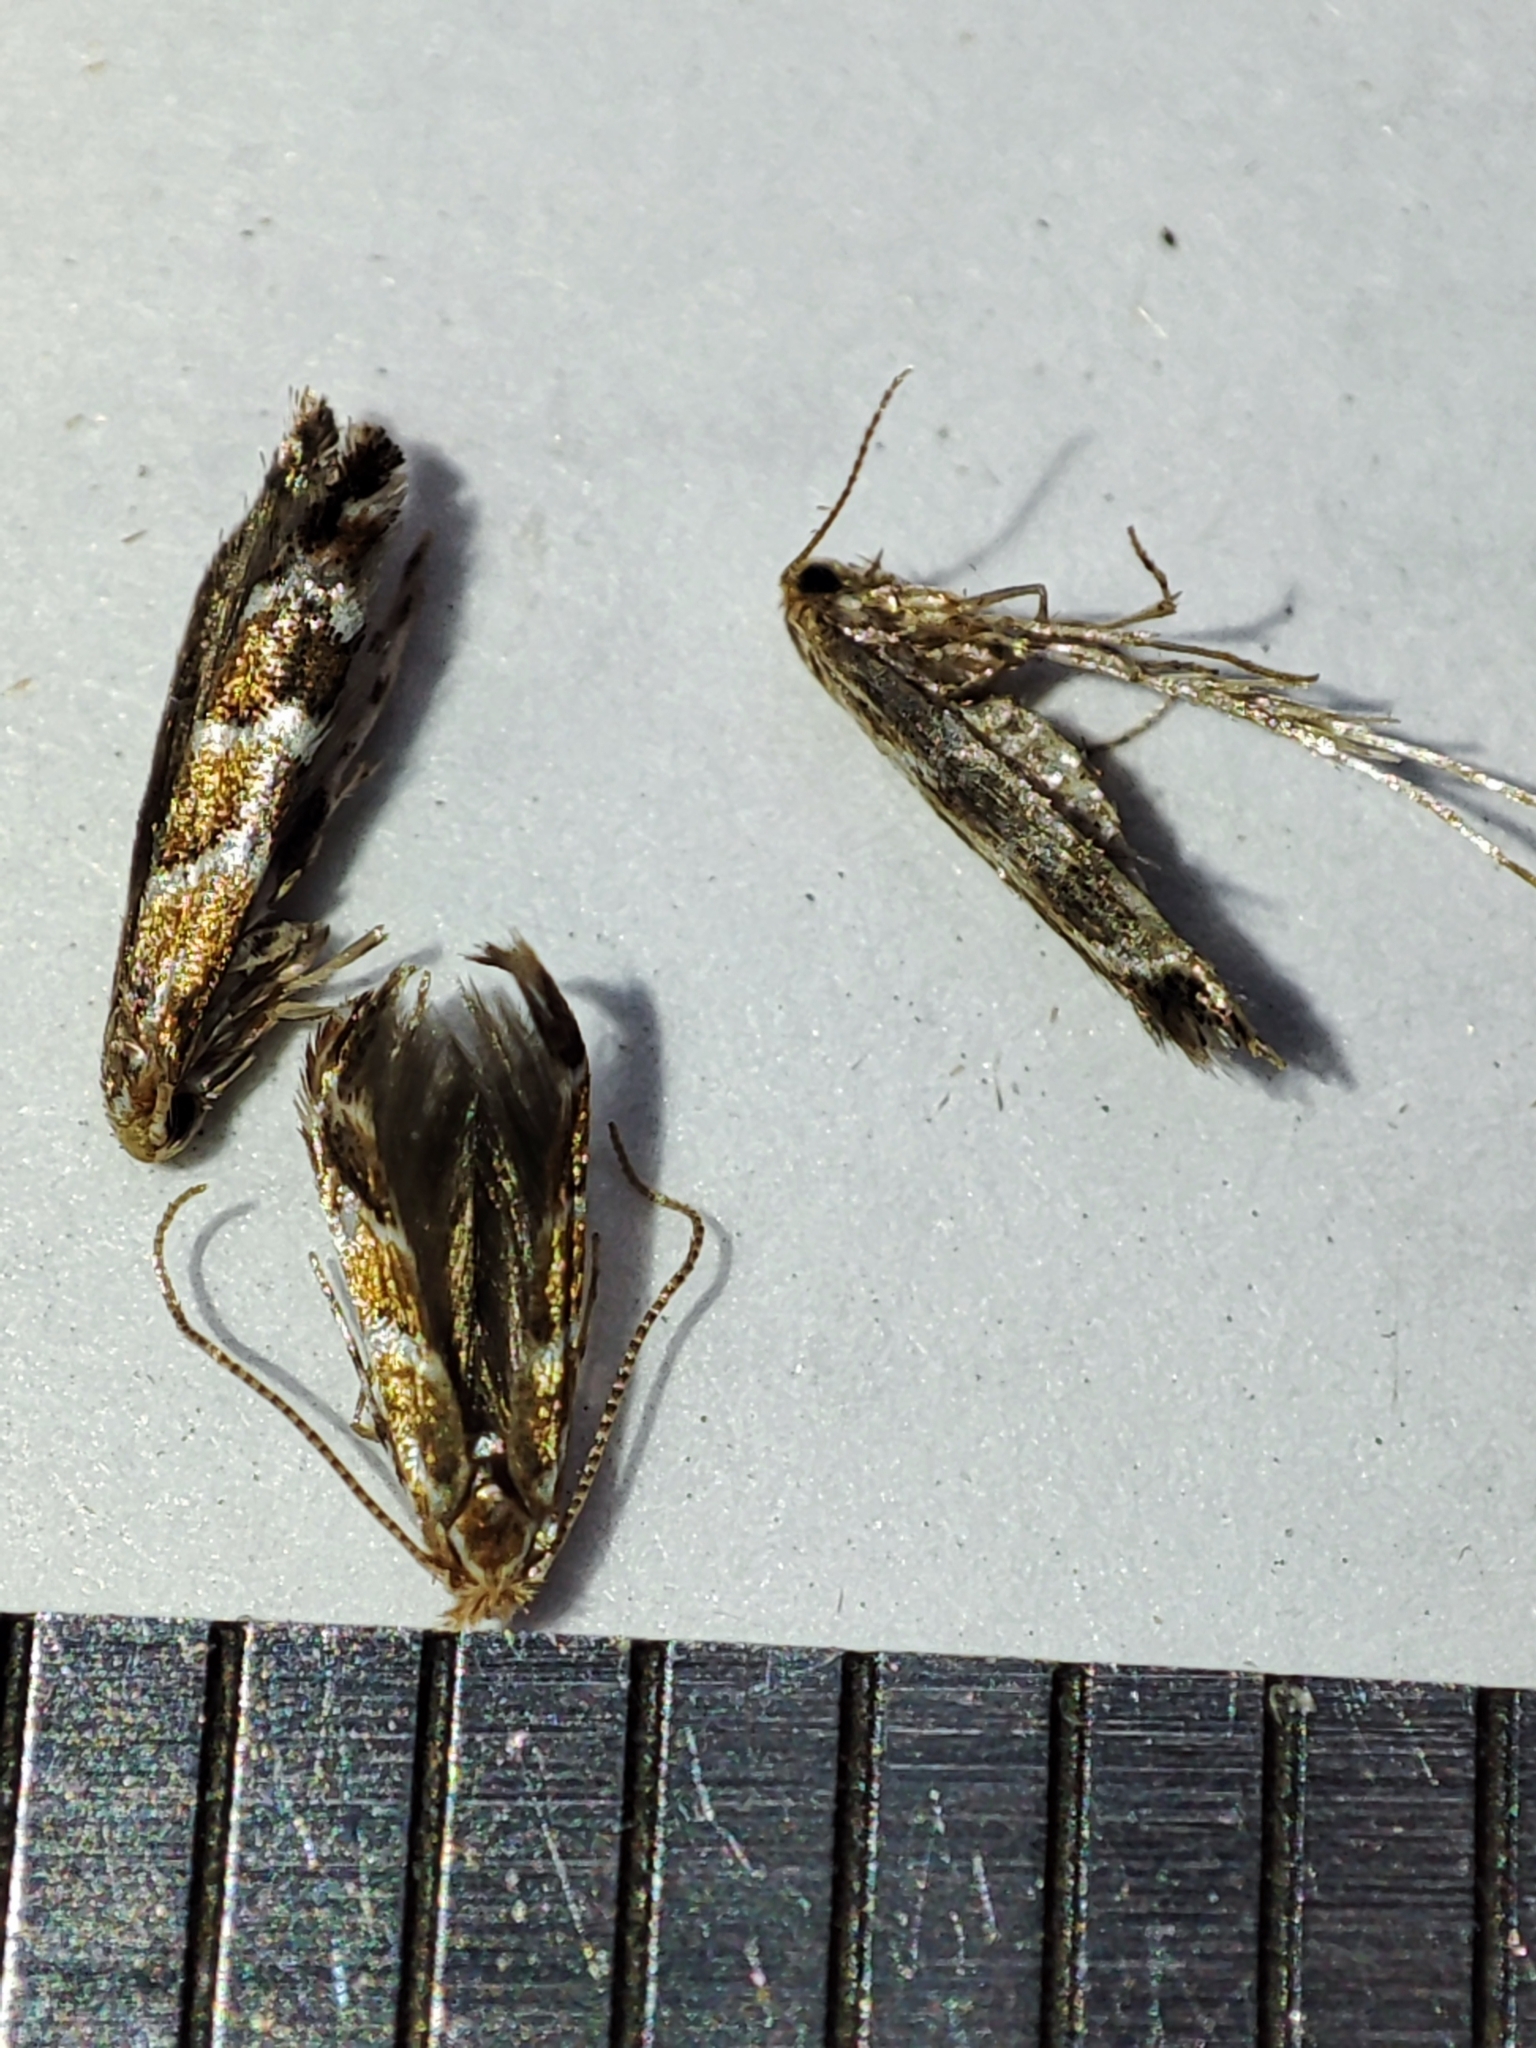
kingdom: Animalia
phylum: Arthropoda
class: Insecta
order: Lepidoptera
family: Gracillariidae
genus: Cameraria
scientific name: Cameraria ohridella
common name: Horse-chestnut leaf-miner
